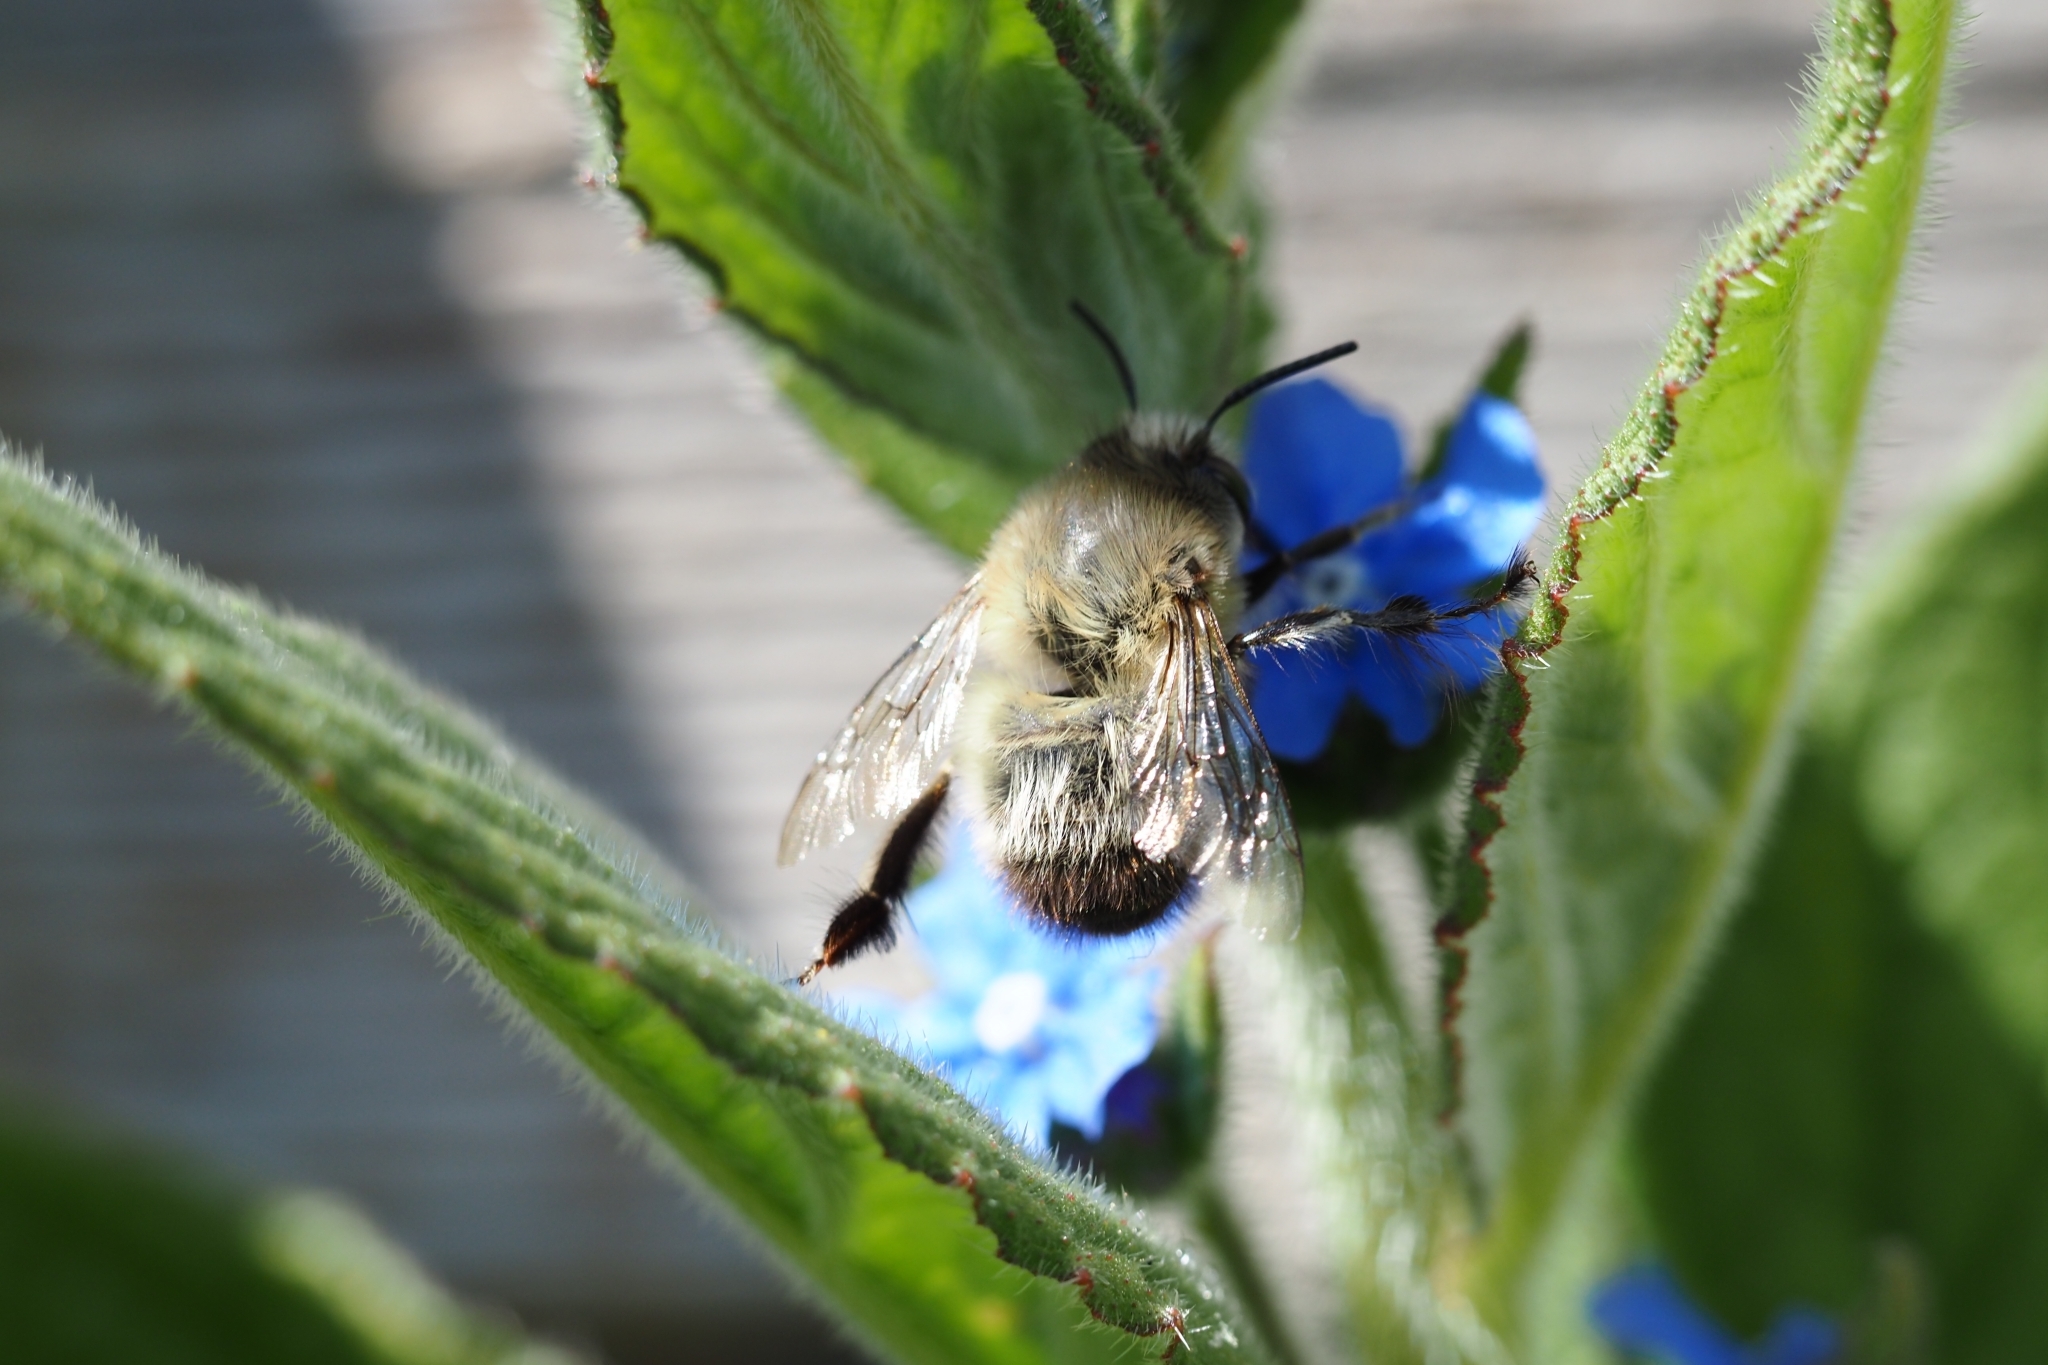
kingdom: Animalia
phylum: Arthropoda
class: Insecta
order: Hymenoptera
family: Apidae
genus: Anthophora
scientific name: Anthophora plumipes
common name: Hairy-footed flower bee
